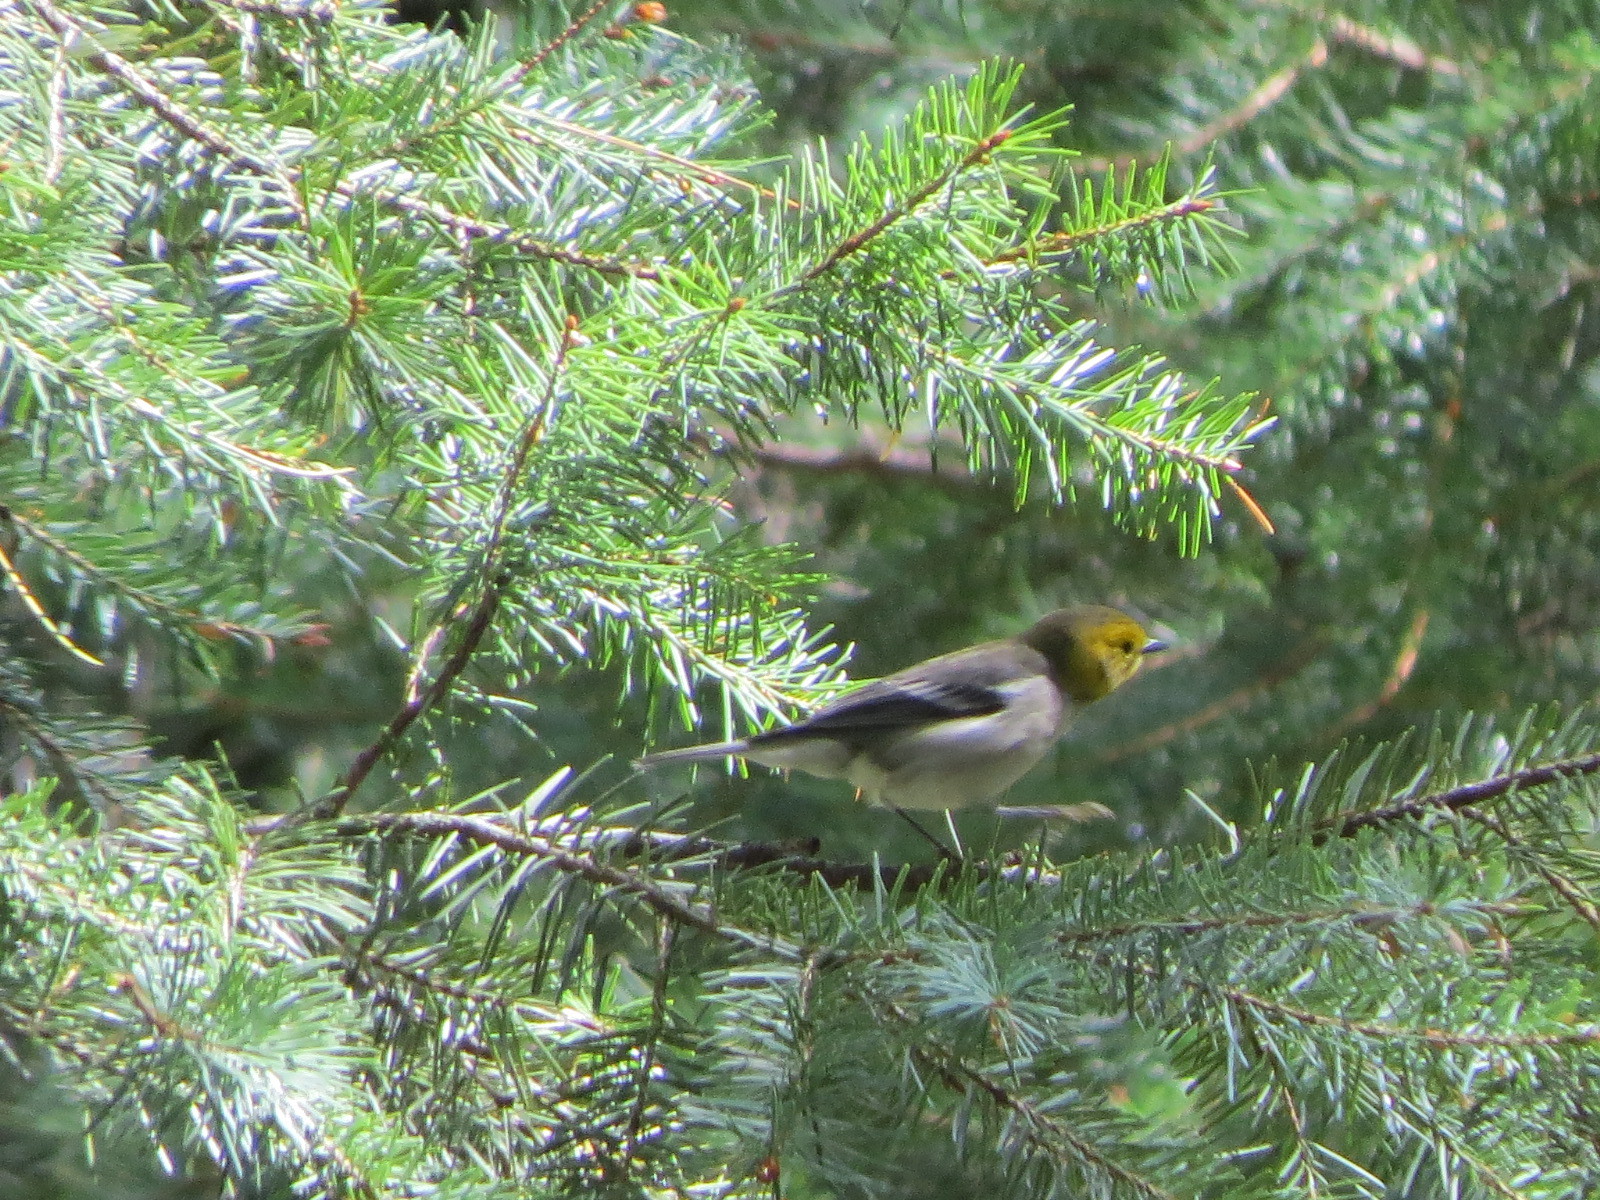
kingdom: Animalia
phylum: Chordata
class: Aves
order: Passeriformes
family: Parulidae
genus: Setophaga
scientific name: Setophaga occidentalis
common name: Hermit warbler
